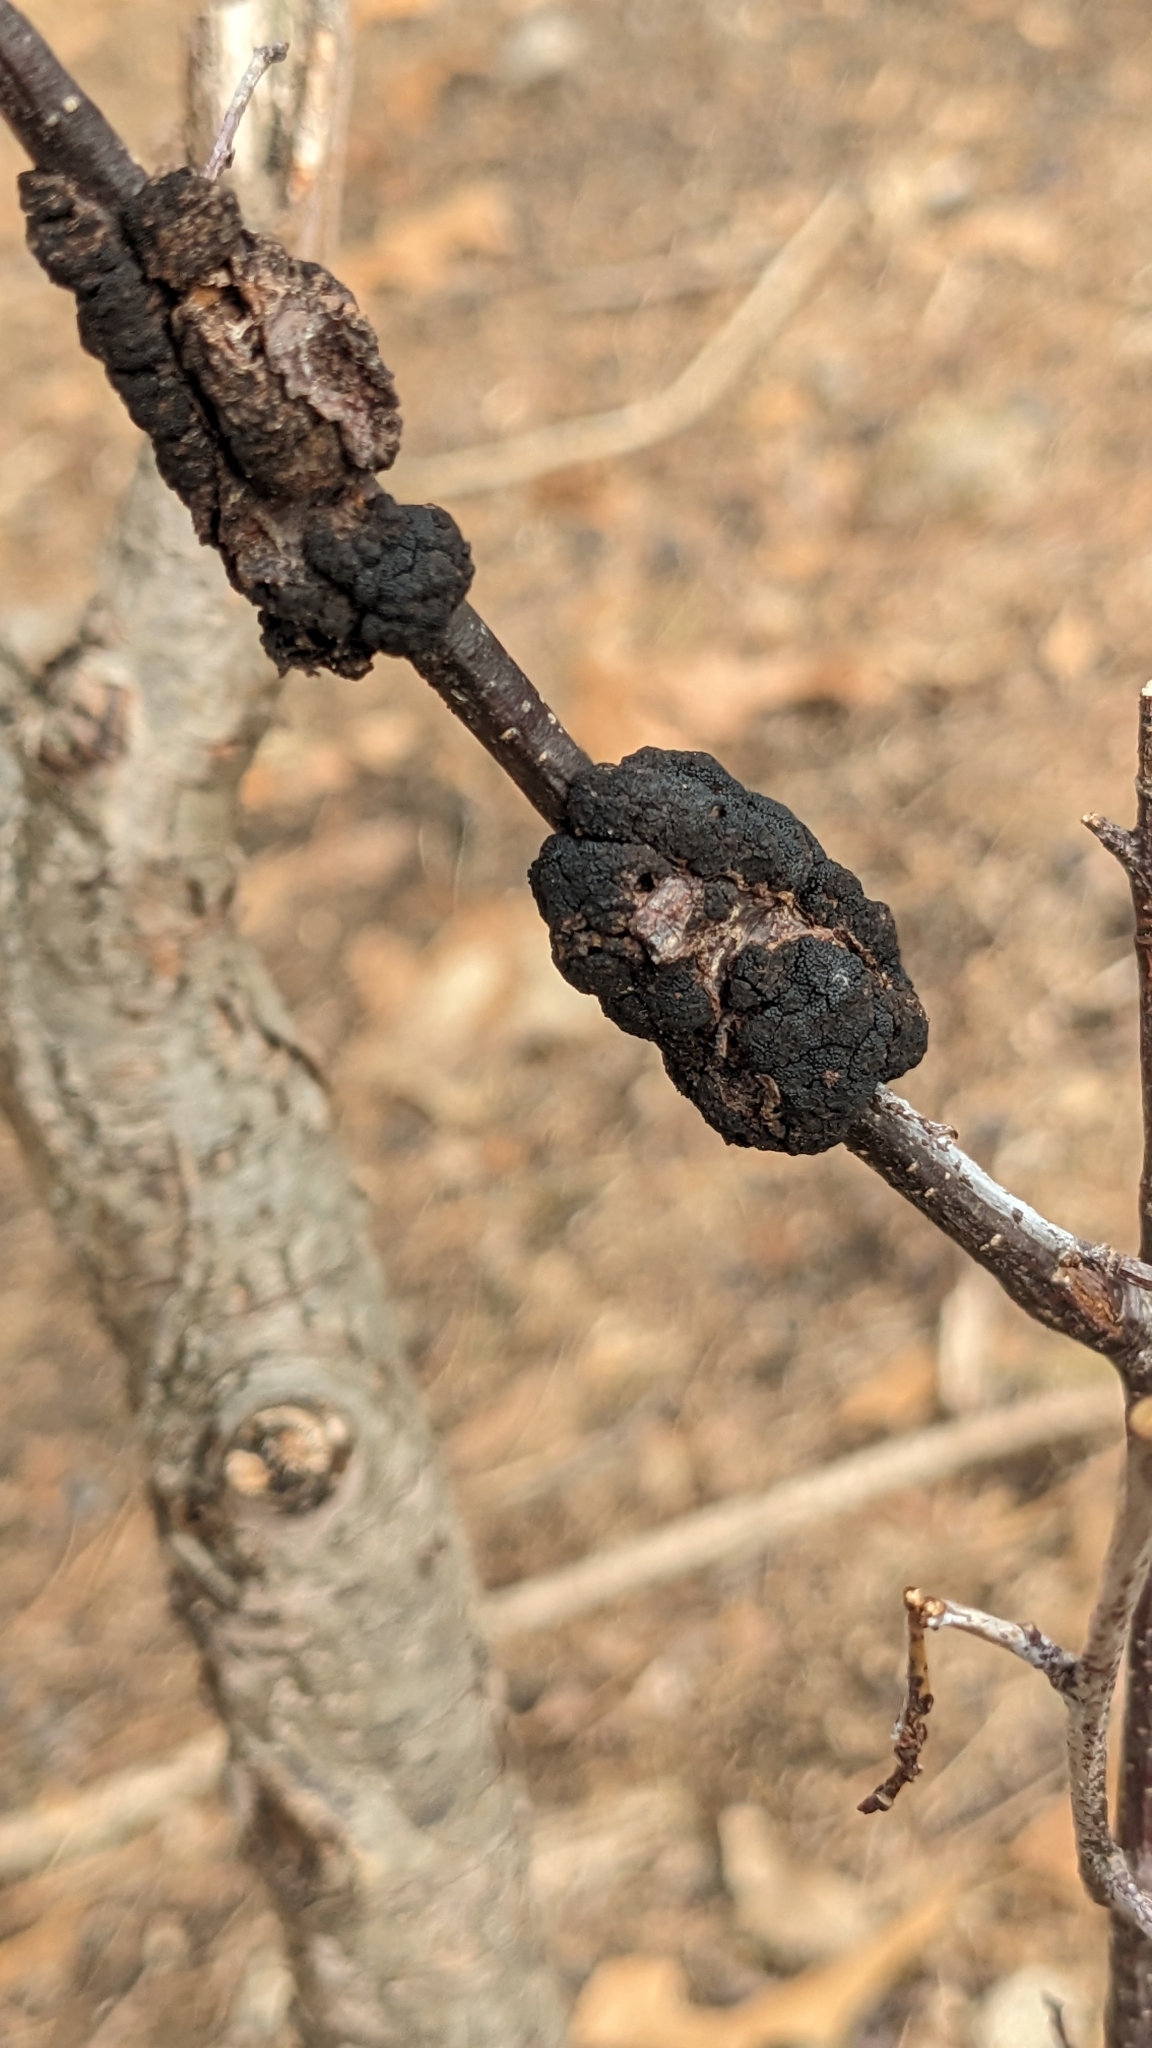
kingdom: Fungi
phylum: Ascomycota
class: Dothideomycetes
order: Venturiales
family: Venturiaceae
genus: Apiosporina
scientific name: Apiosporina morbosa
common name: Black knot
